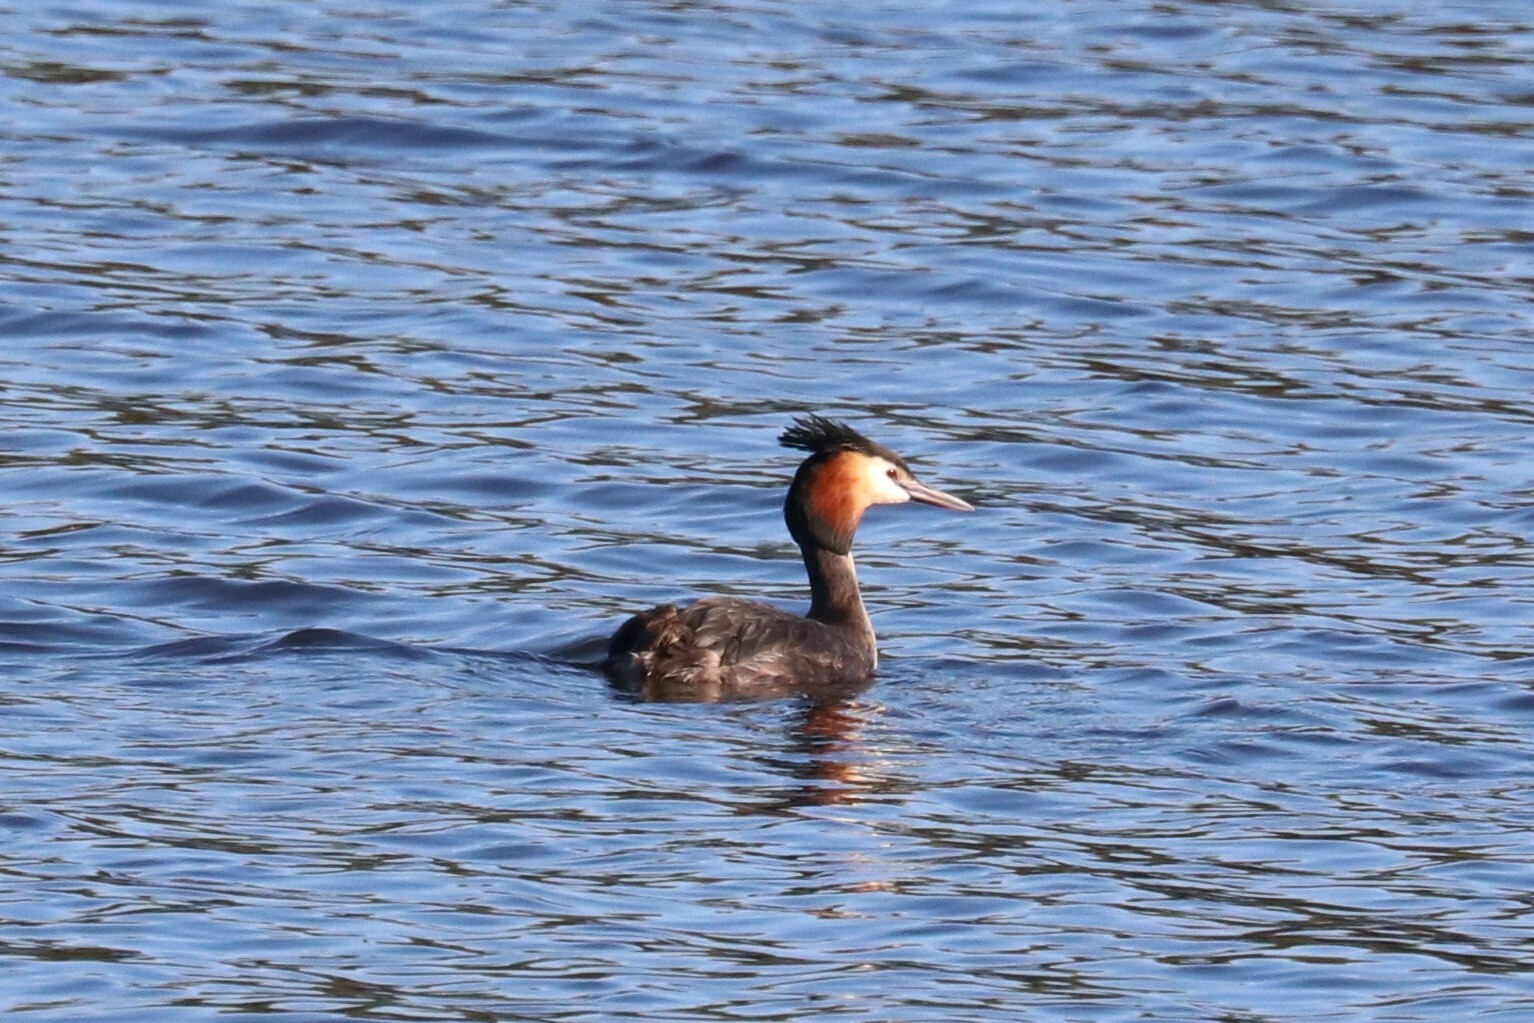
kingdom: Animalia
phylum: Chordata
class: Aves
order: Podicipediformes
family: Podicipedidae
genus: Podiceps
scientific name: Podiceps cristatus
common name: Great crested grebe
